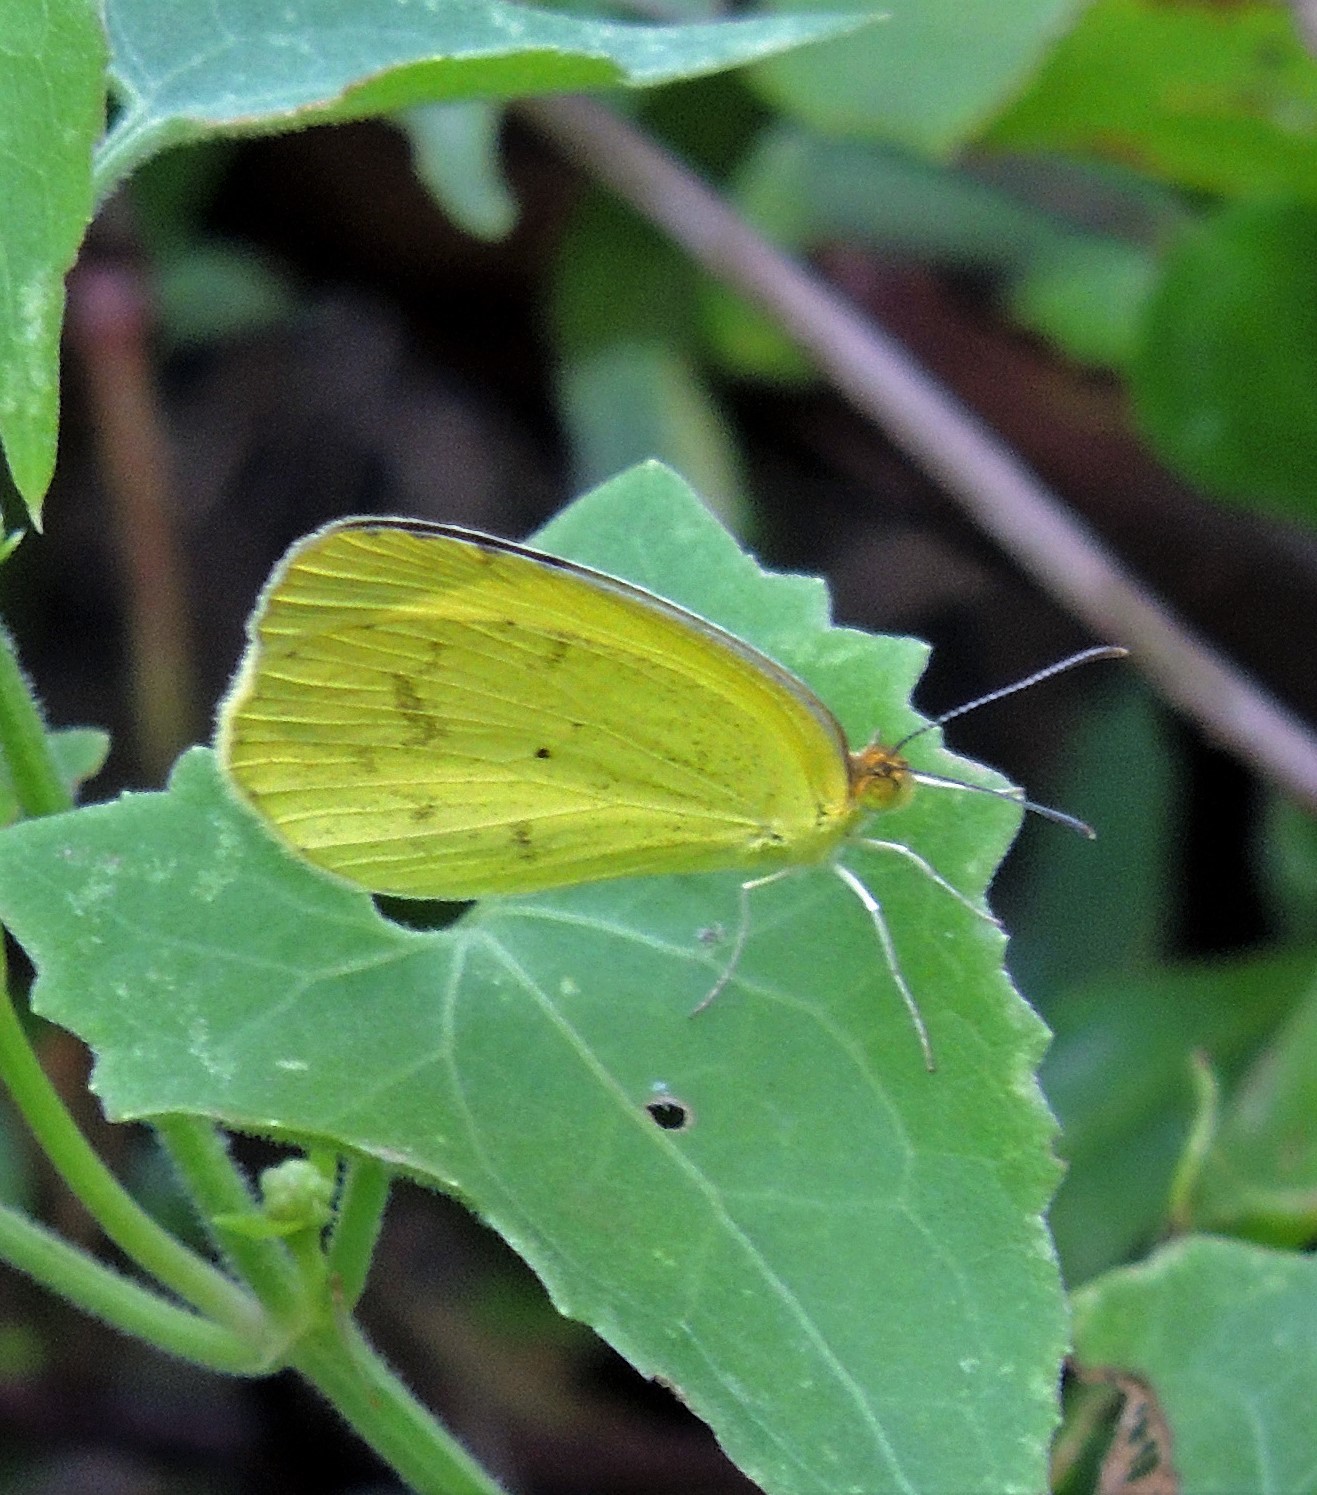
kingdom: Animalia
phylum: Arthropoda
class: Insecta
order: Lepidoptera
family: Pieridae
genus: Pyrisitia
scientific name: Pyrisitia nise
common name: Mimosa yellow
